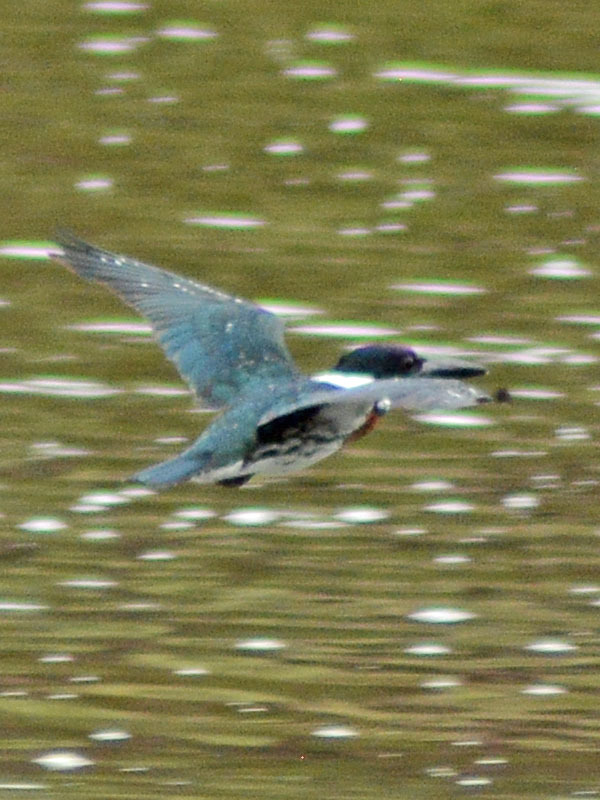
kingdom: Animalia
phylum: Chordata
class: Aves
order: Coraciiformes
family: Alcedinidae
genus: Megaceryle
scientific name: Megaceryle alcyon
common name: Belted kingfisher
